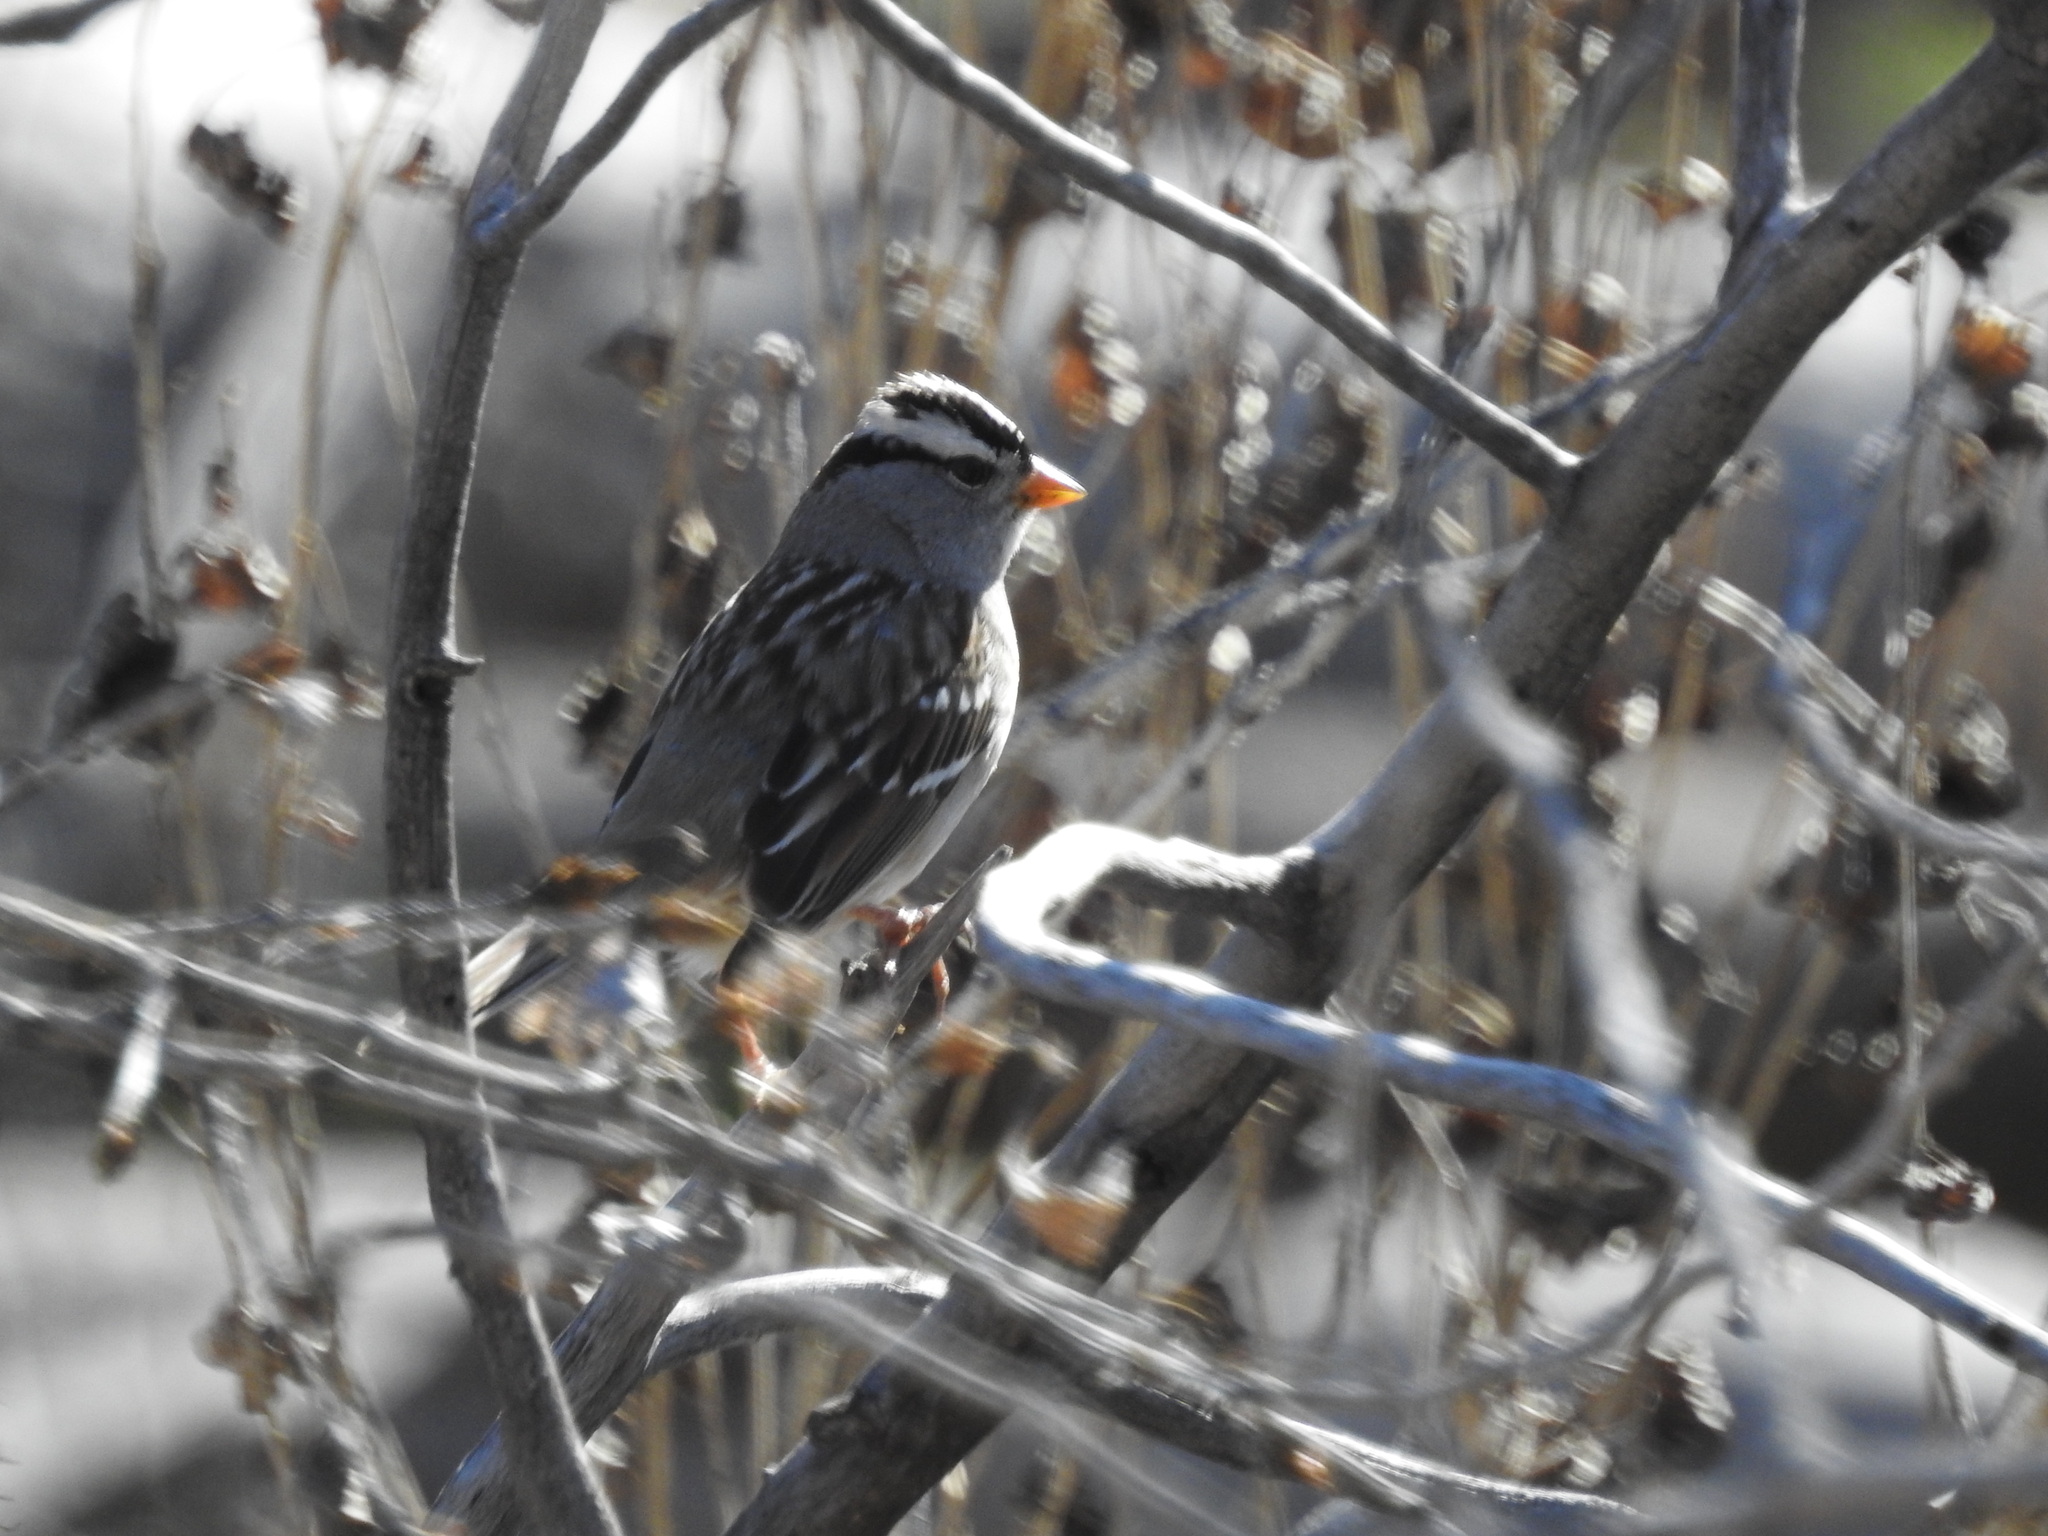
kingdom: Animalia
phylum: Chordata
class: Aves
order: Passeriformes
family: Passerellidae
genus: Zonotrichia
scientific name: Zonotrichia leucophrys
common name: White-crowned sparrow
